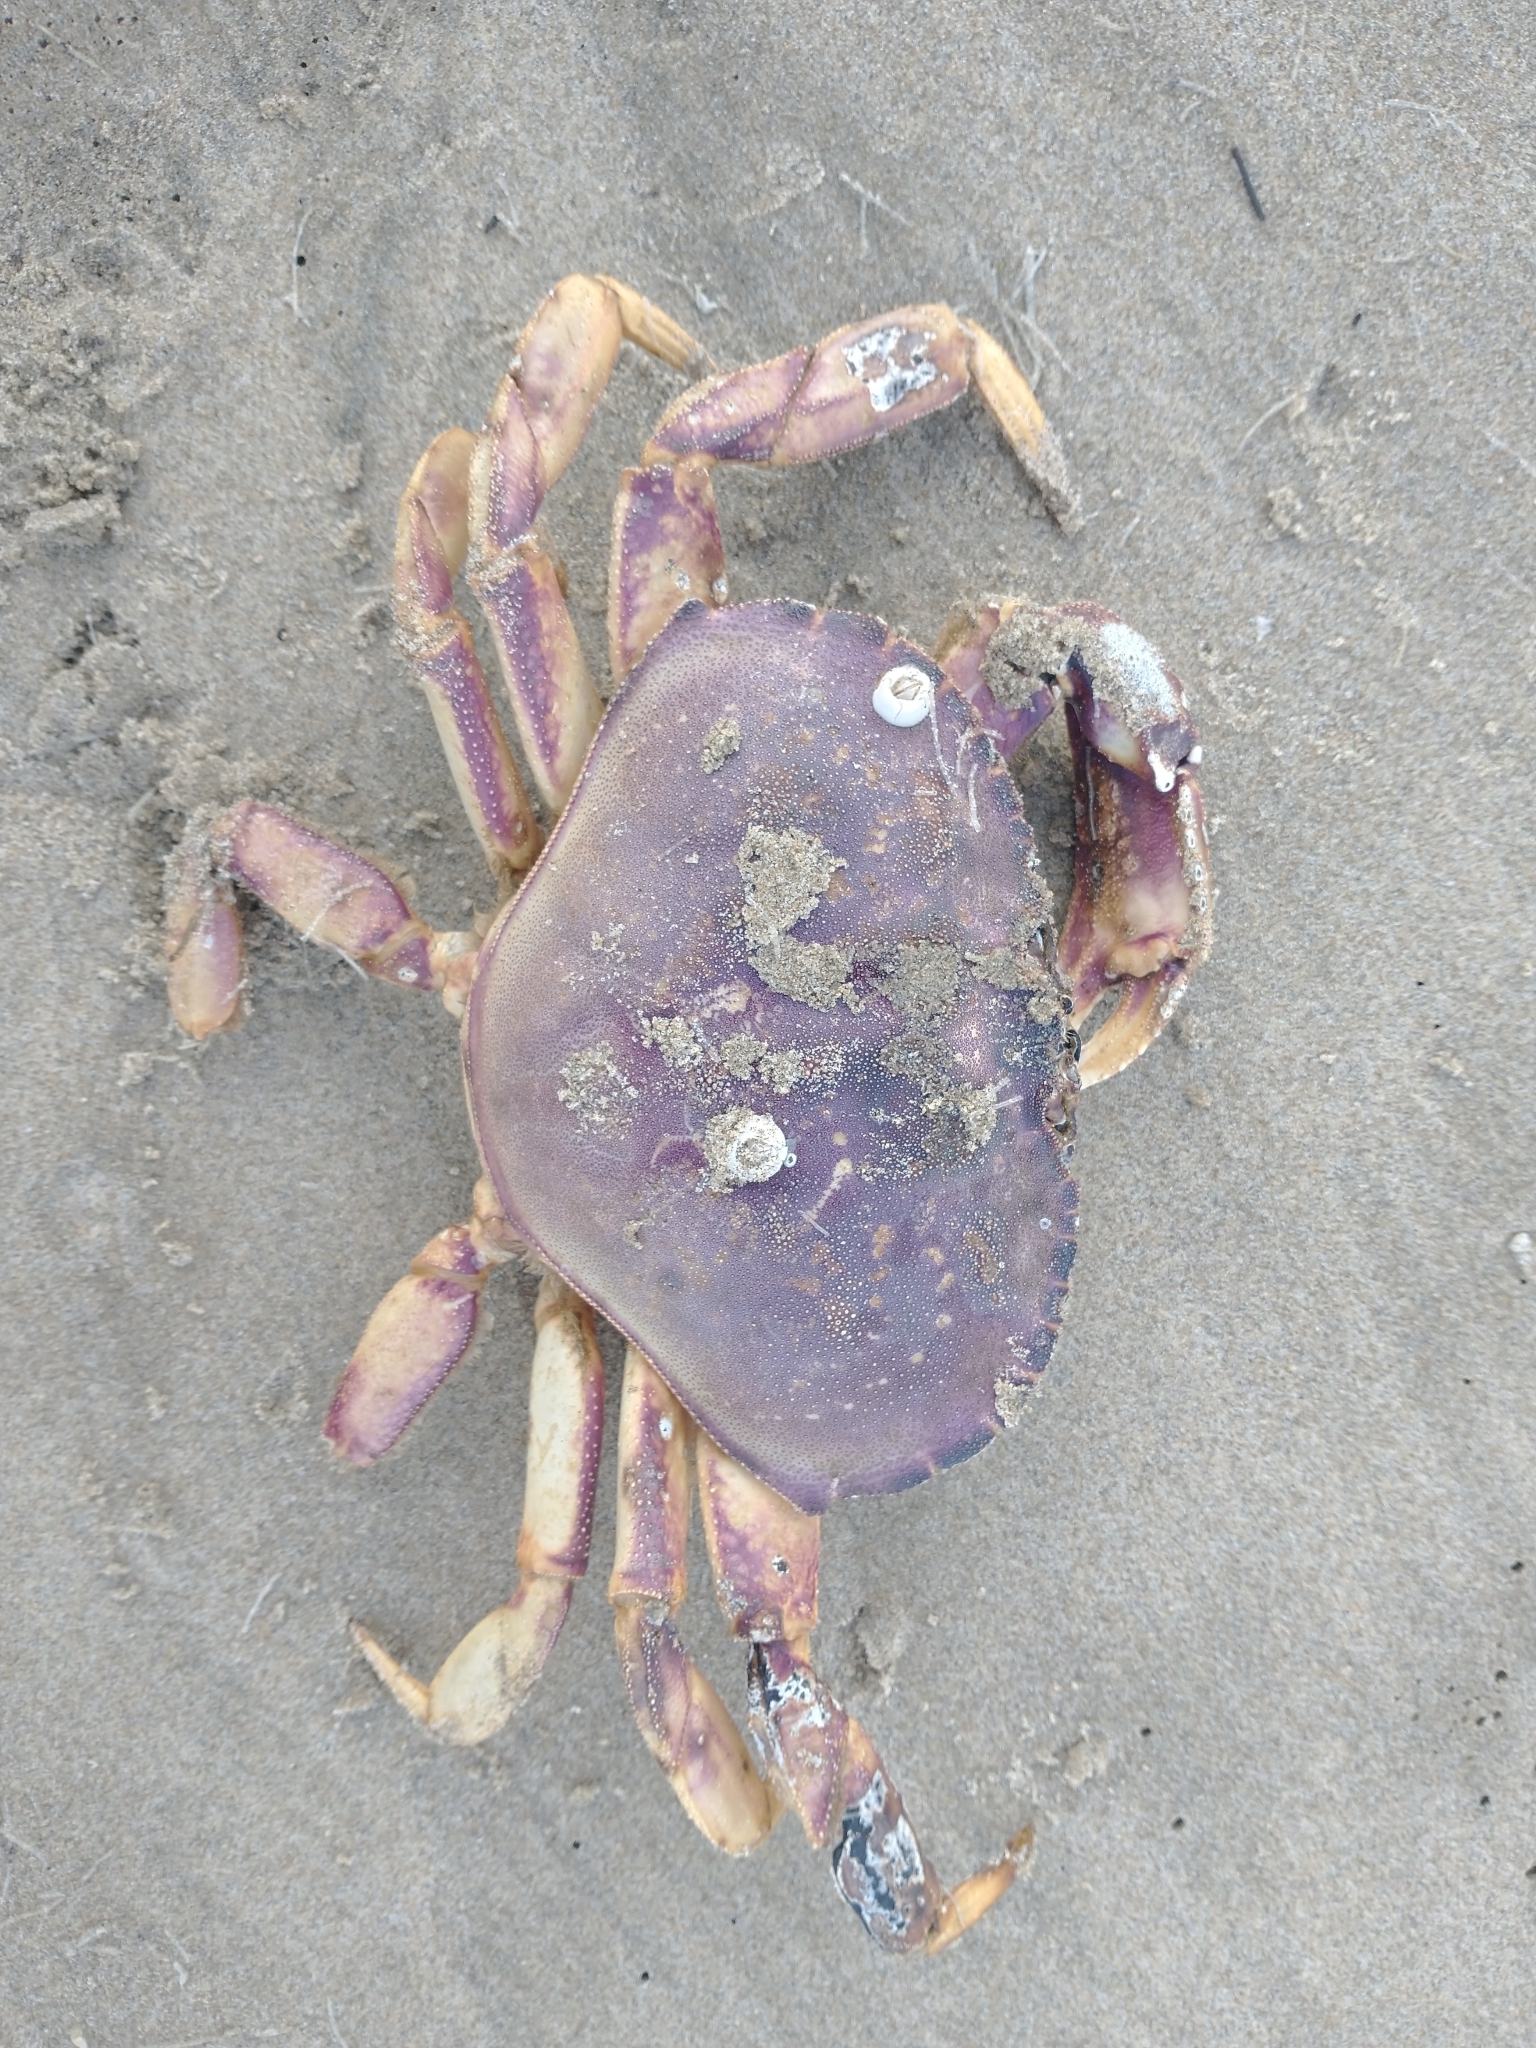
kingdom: Animalia
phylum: Arthropoda
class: Malacostraca
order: Decapoda
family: Cancridae
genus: Metacarcinus
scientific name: Metacarcinus magister
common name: Californian crab
